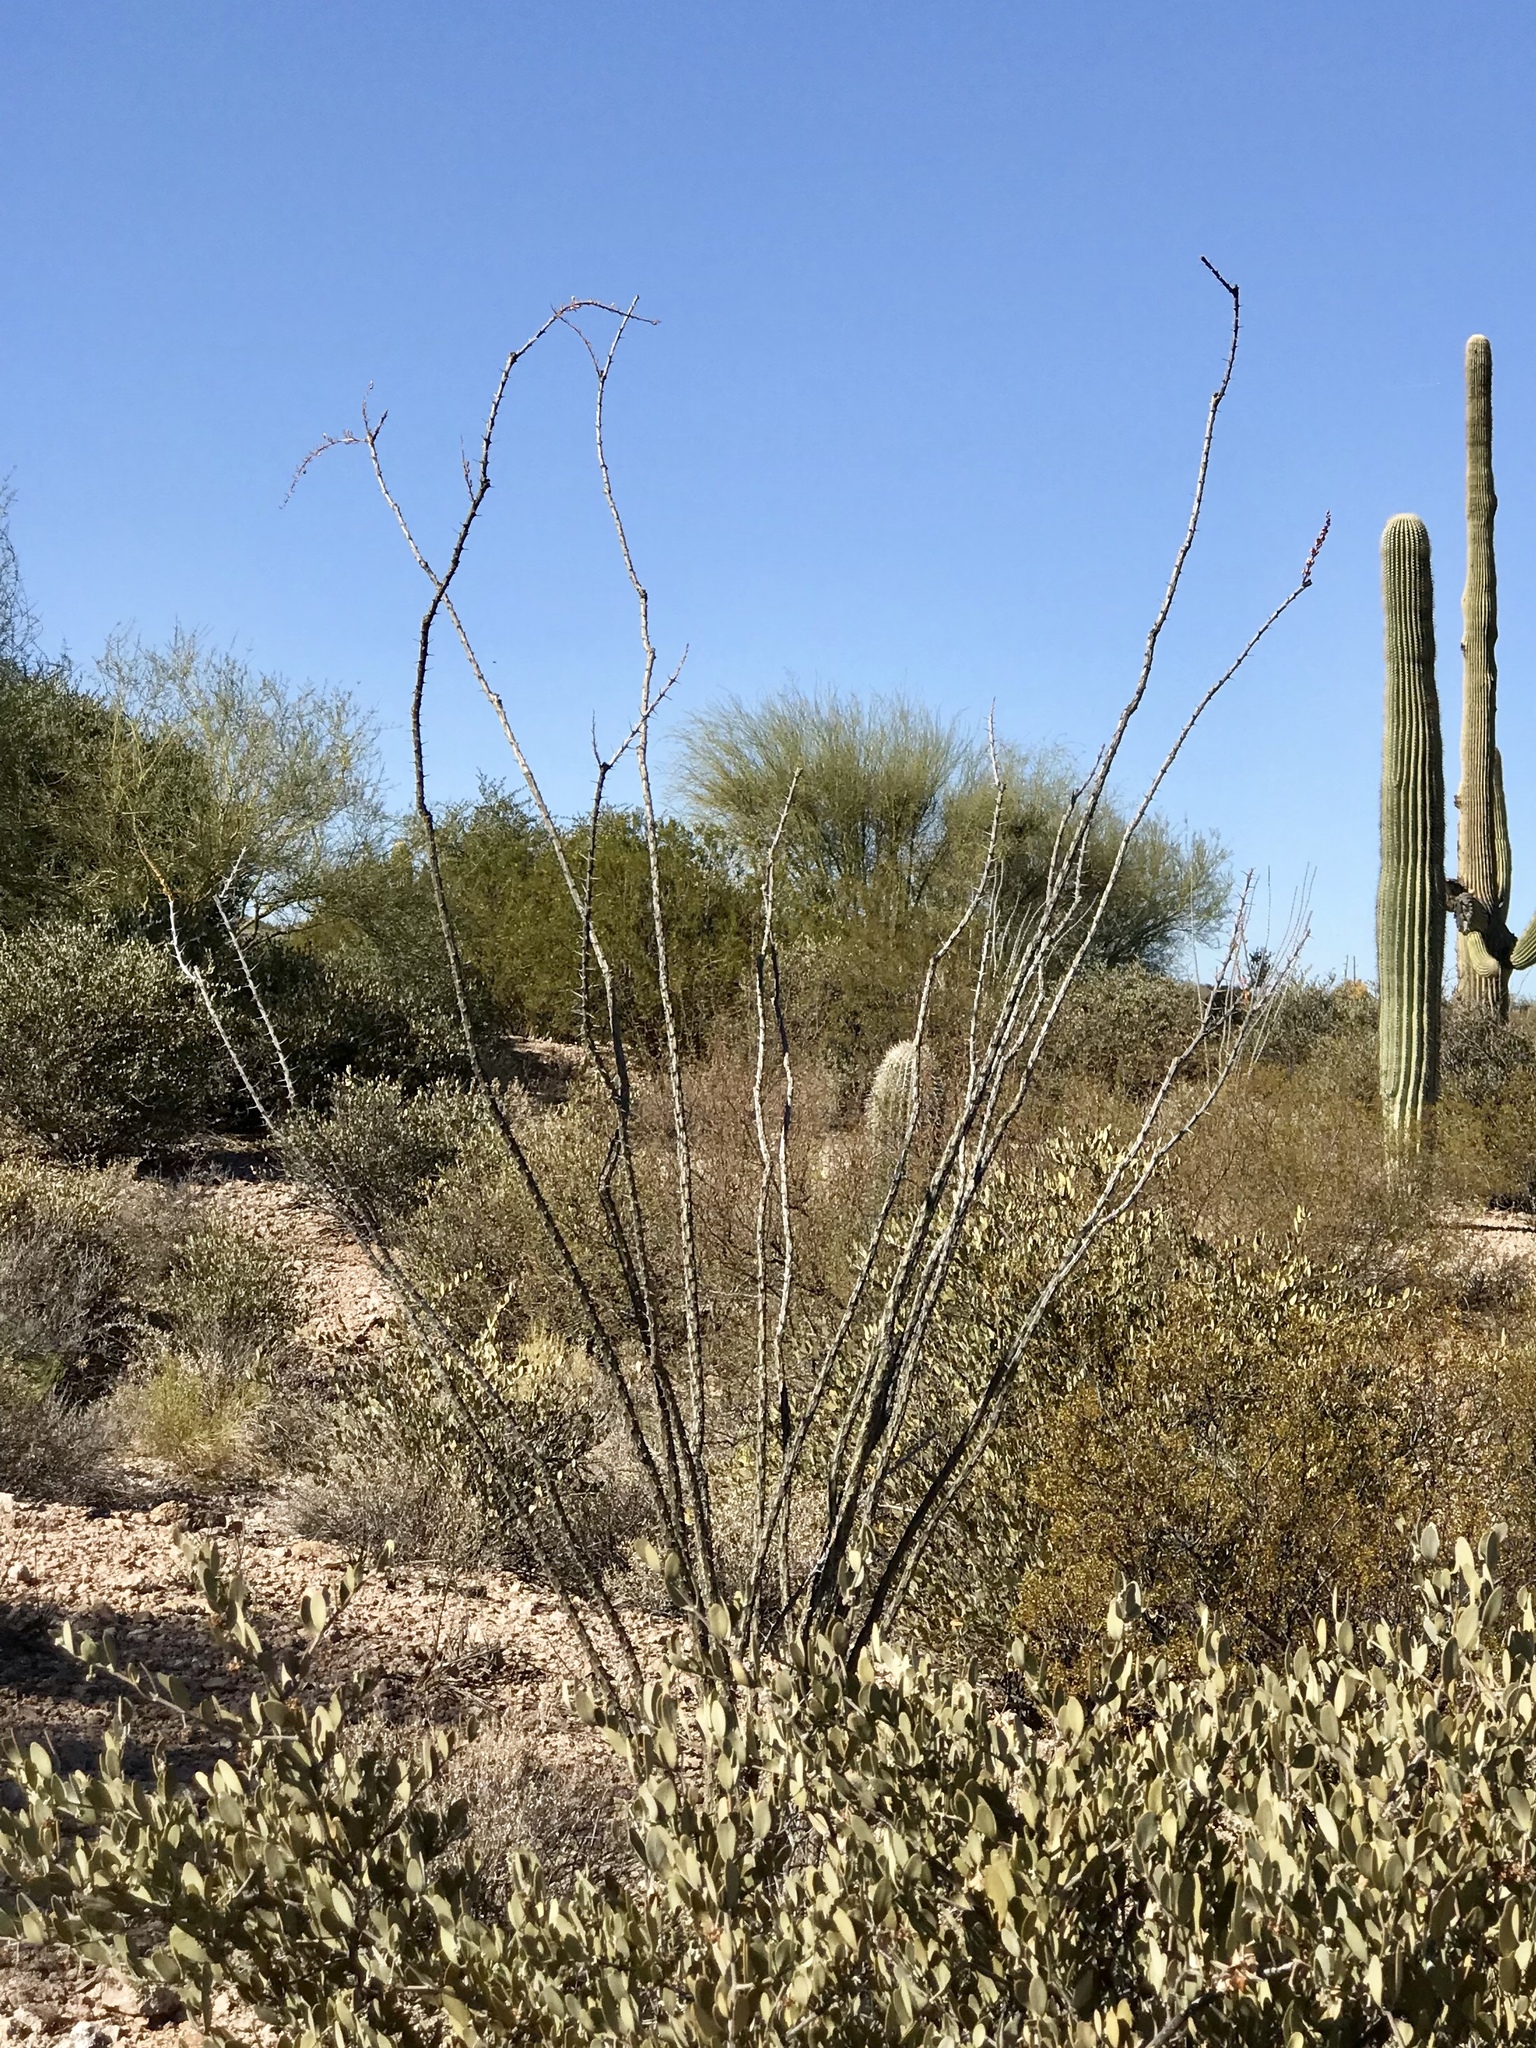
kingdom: Plantae
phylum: Tracheophyta
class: Magnoliopsida
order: Ericales
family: Fouquieriaceae
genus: Fouquieria
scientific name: Fouquieria splendens
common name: Vine-cactus
